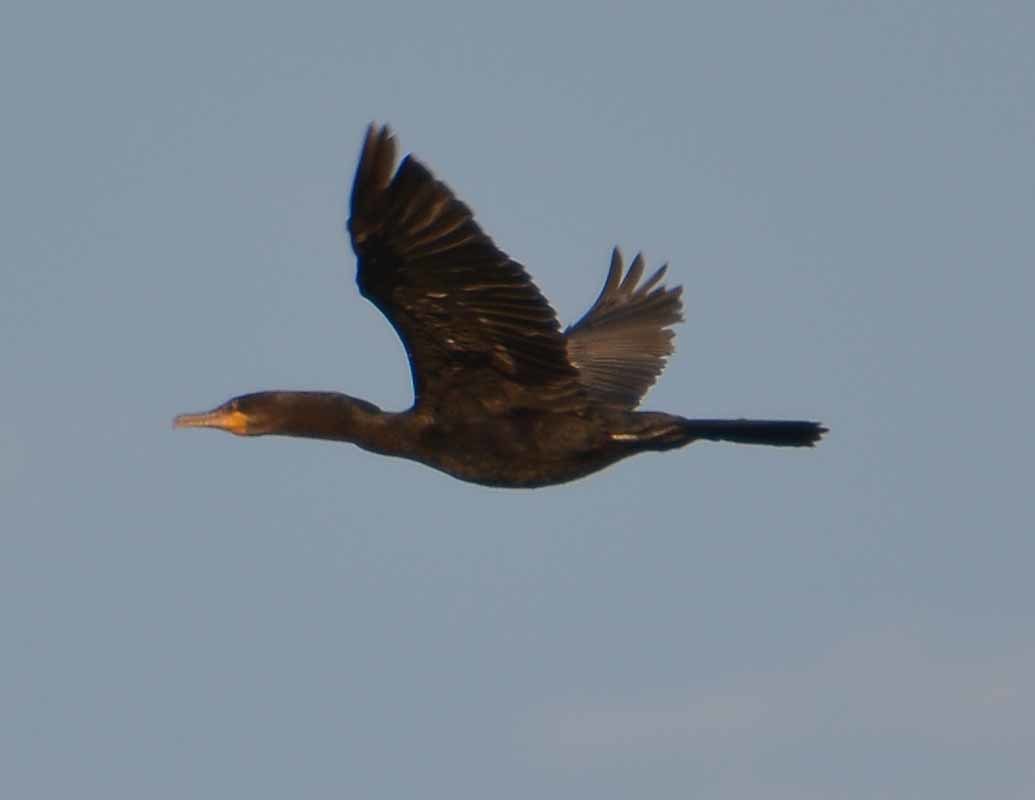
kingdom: Animalia
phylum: Chordata
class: Aves
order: Suliformes
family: Phalacrocoracidae
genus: Phalacrocorax
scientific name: Phalacrocorax brasilianus
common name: Neotropic cormorant
